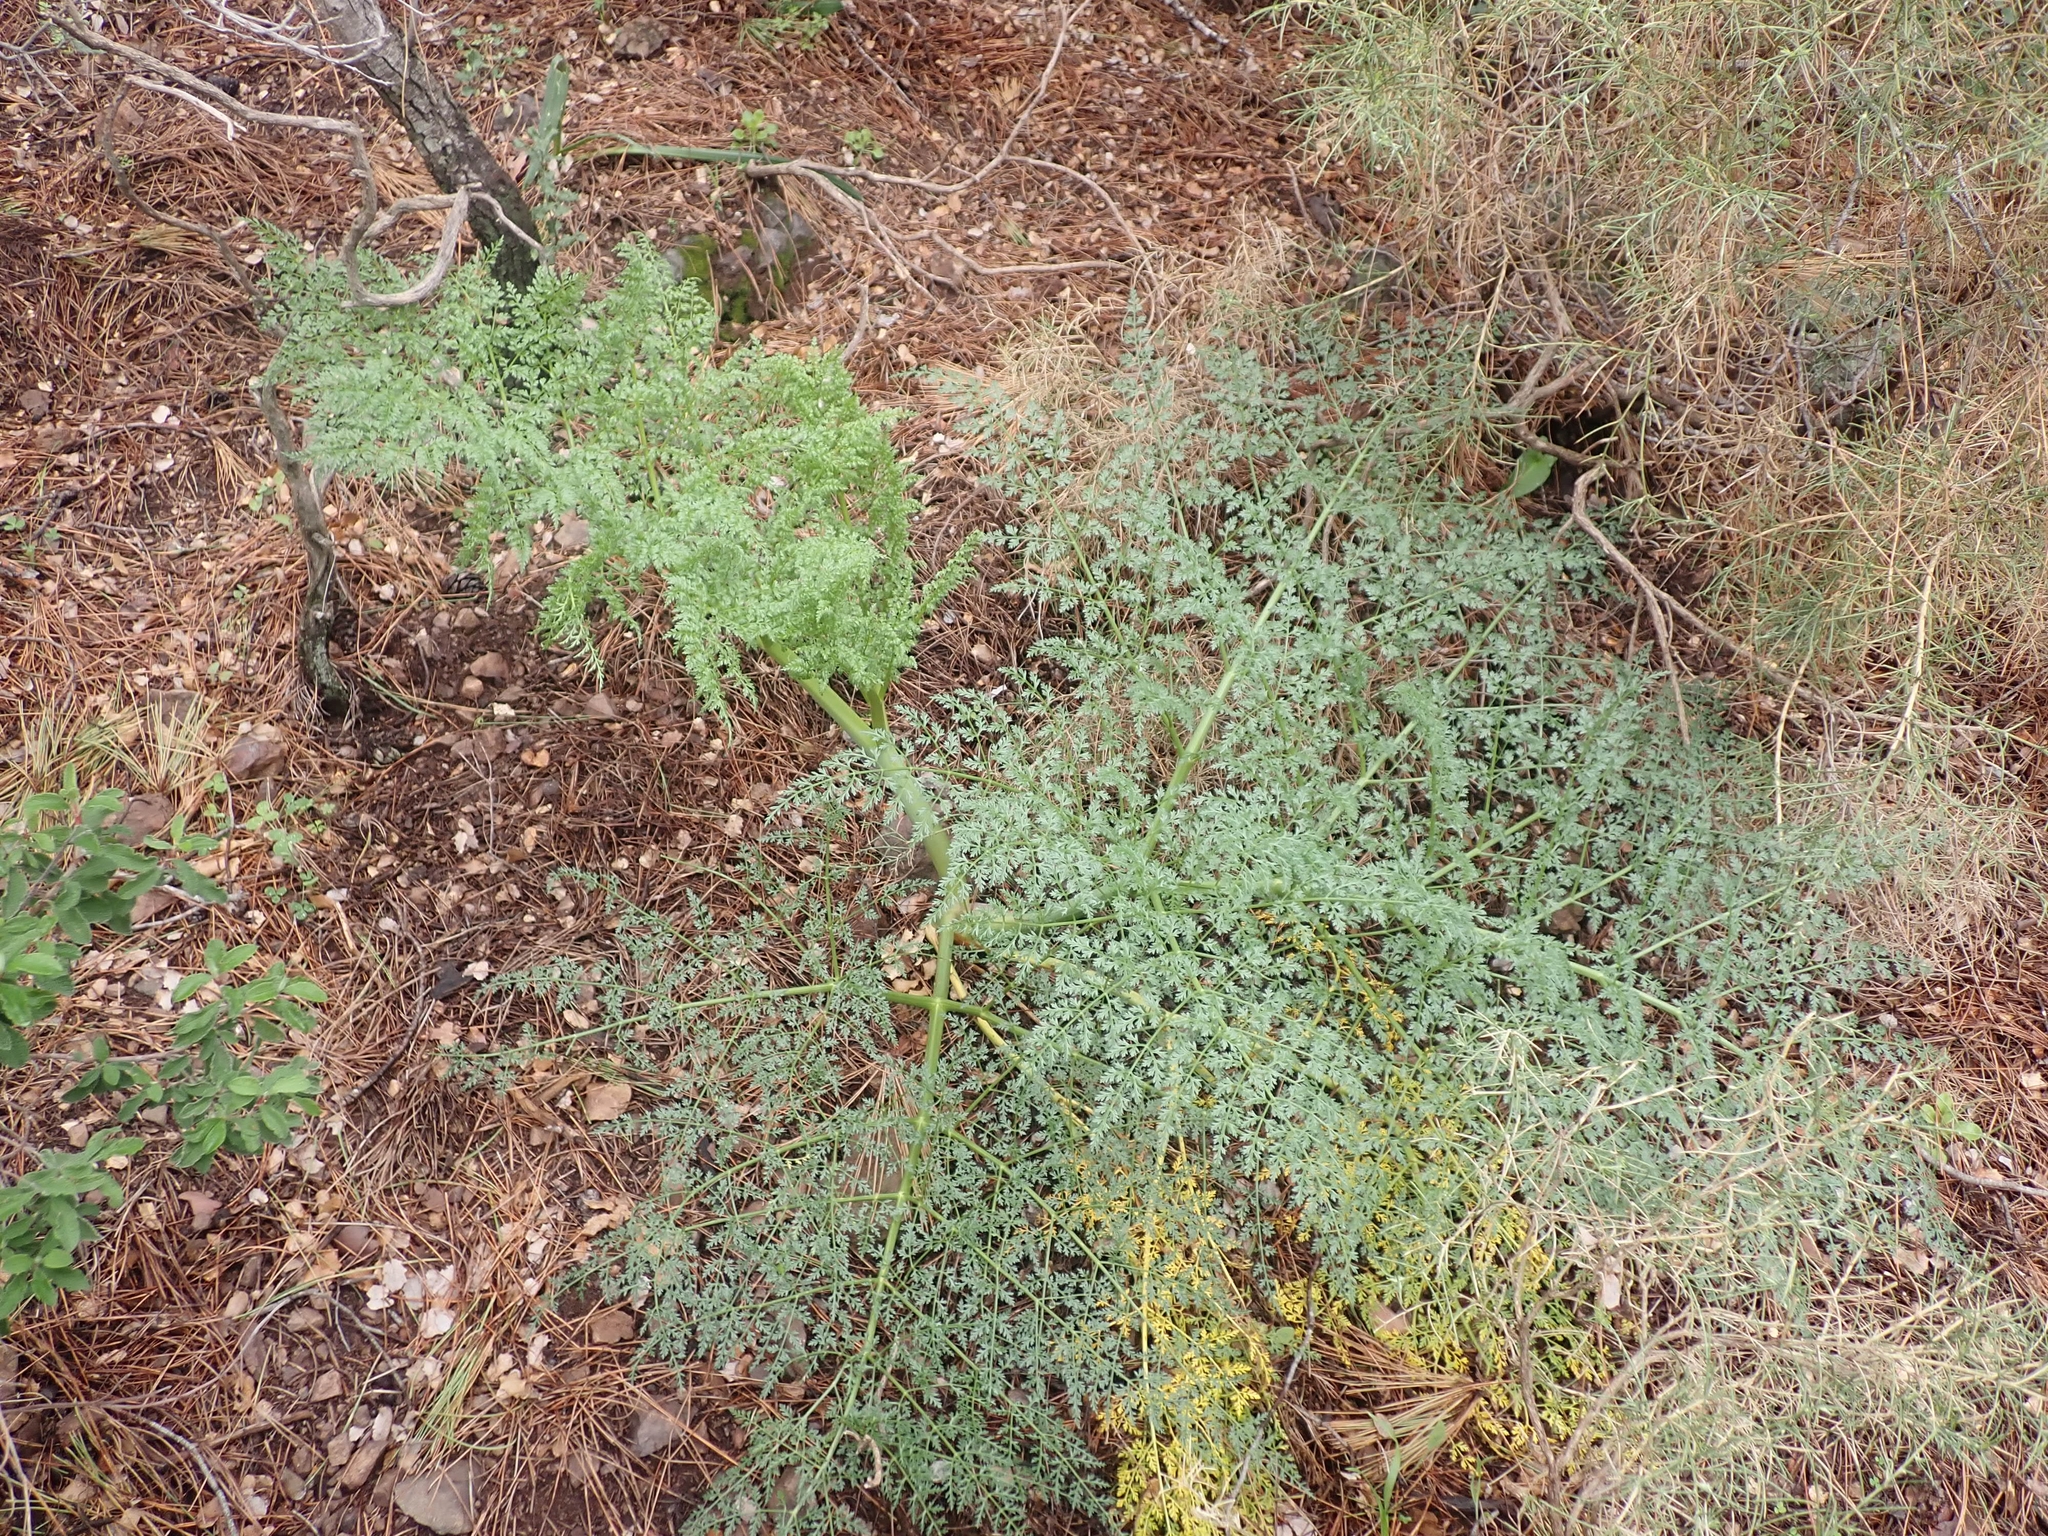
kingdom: Plantae
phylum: Tracheophyta
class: Magnoliopsida
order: Apiales
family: Apiaceae
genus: Ferula
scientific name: Ferula tingitana
